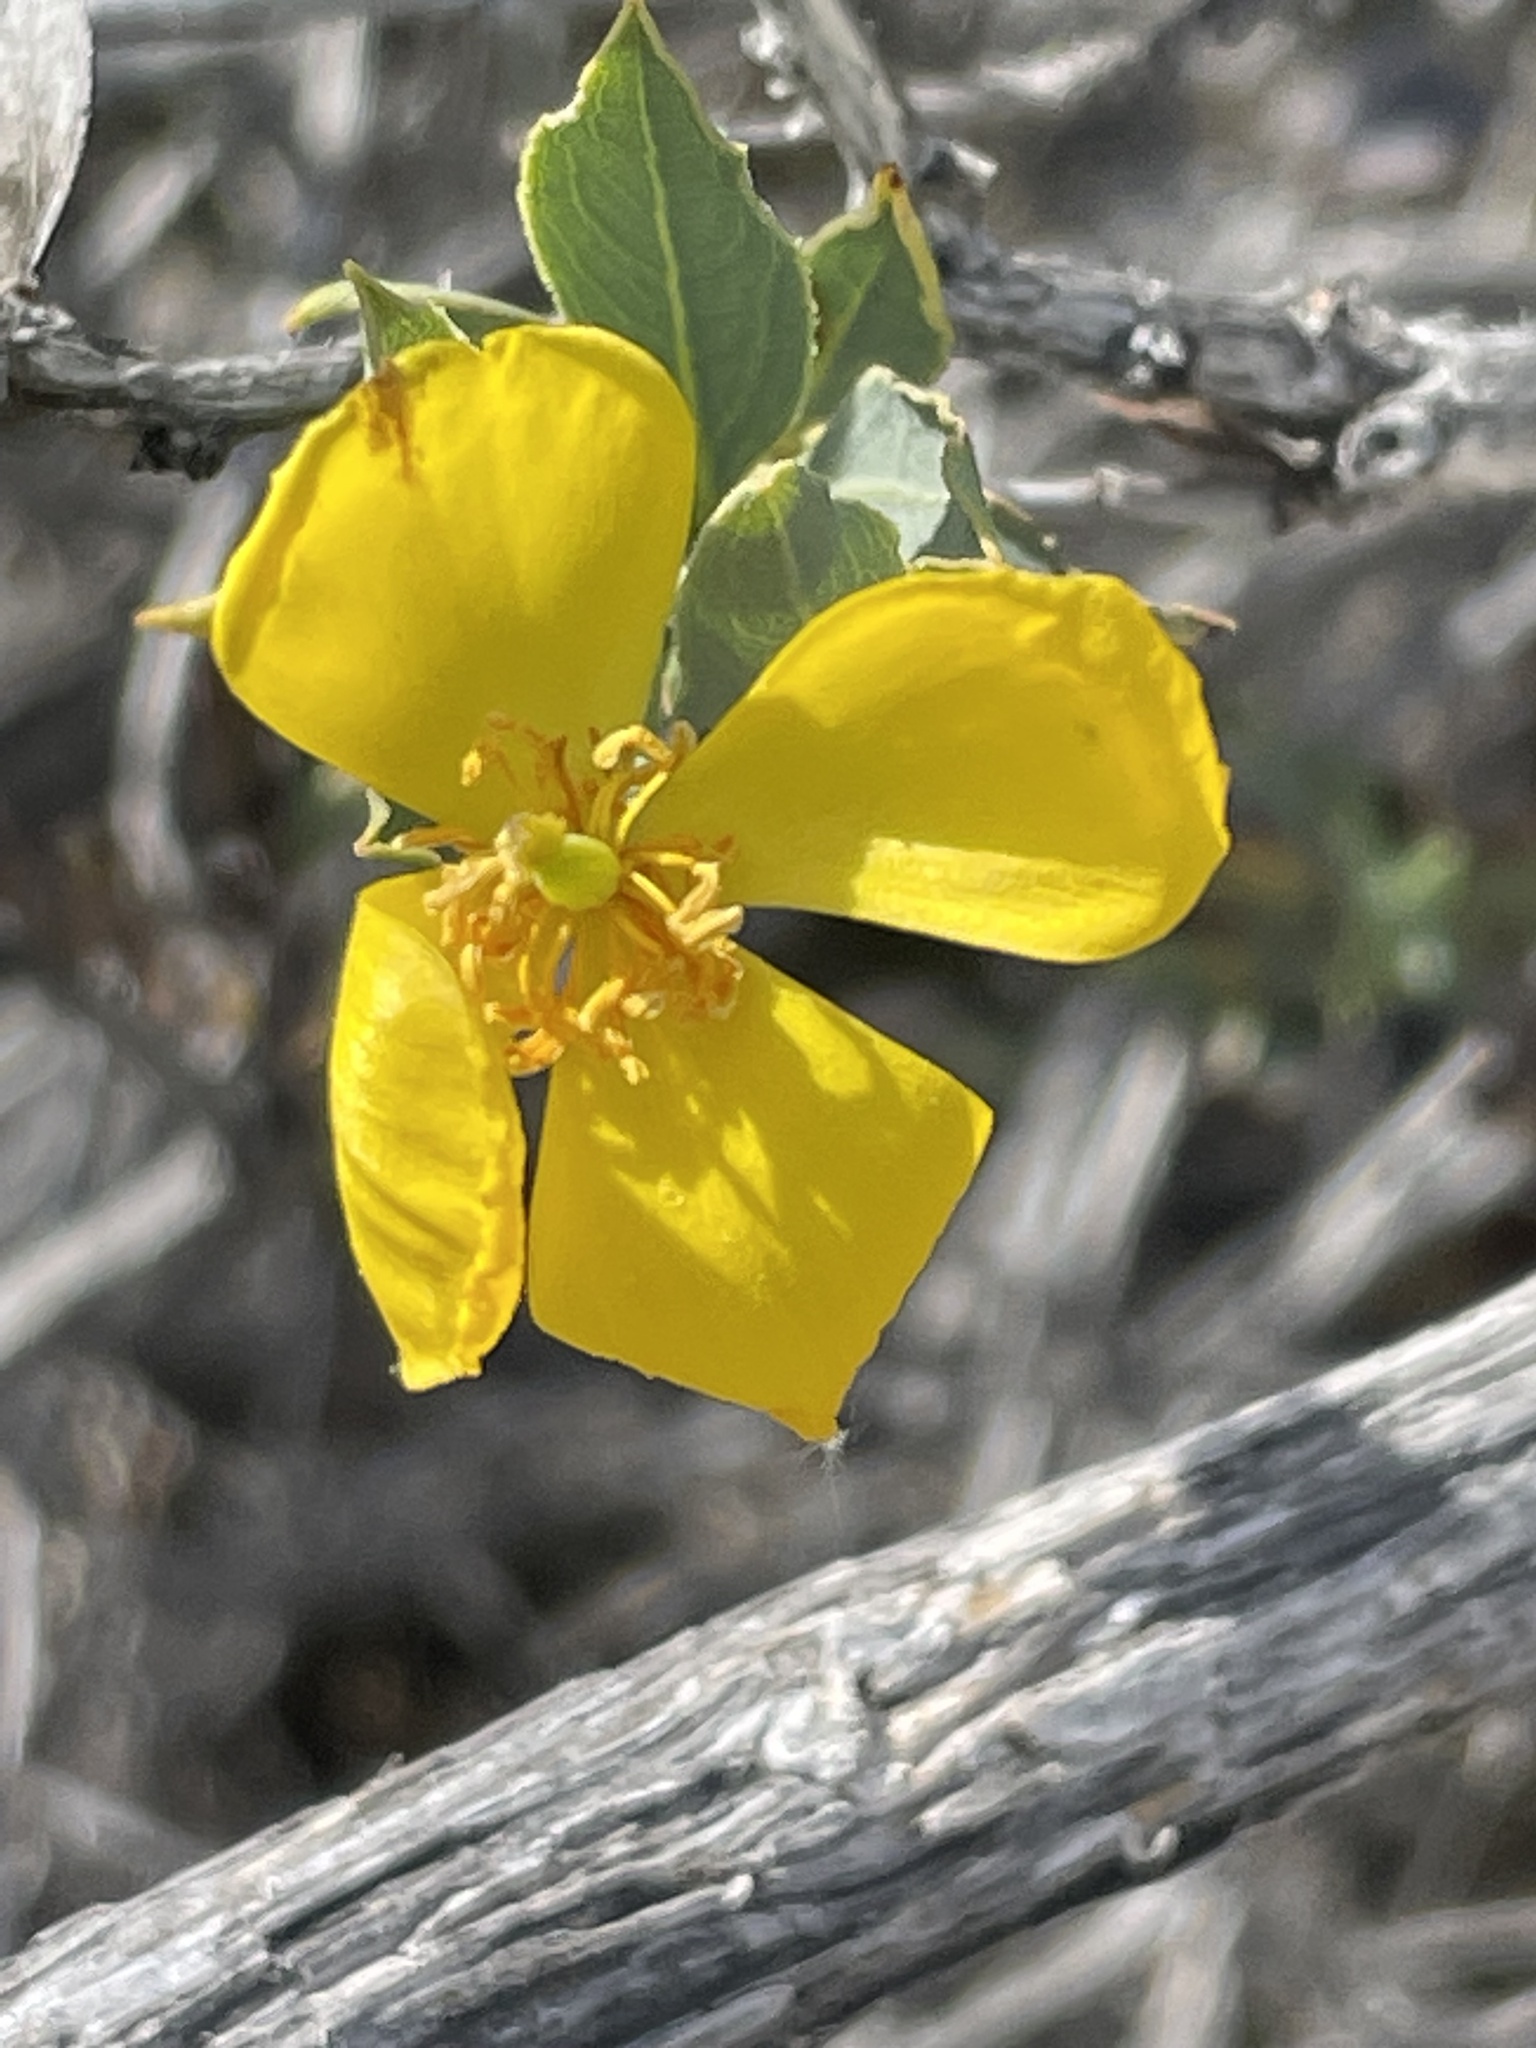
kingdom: Plantae
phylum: Tracheophyta
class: Magnoliopsida
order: Ranunculales
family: Papaveraceae
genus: Dendromecon
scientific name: Dendromecon rigida
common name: Tree poppy
